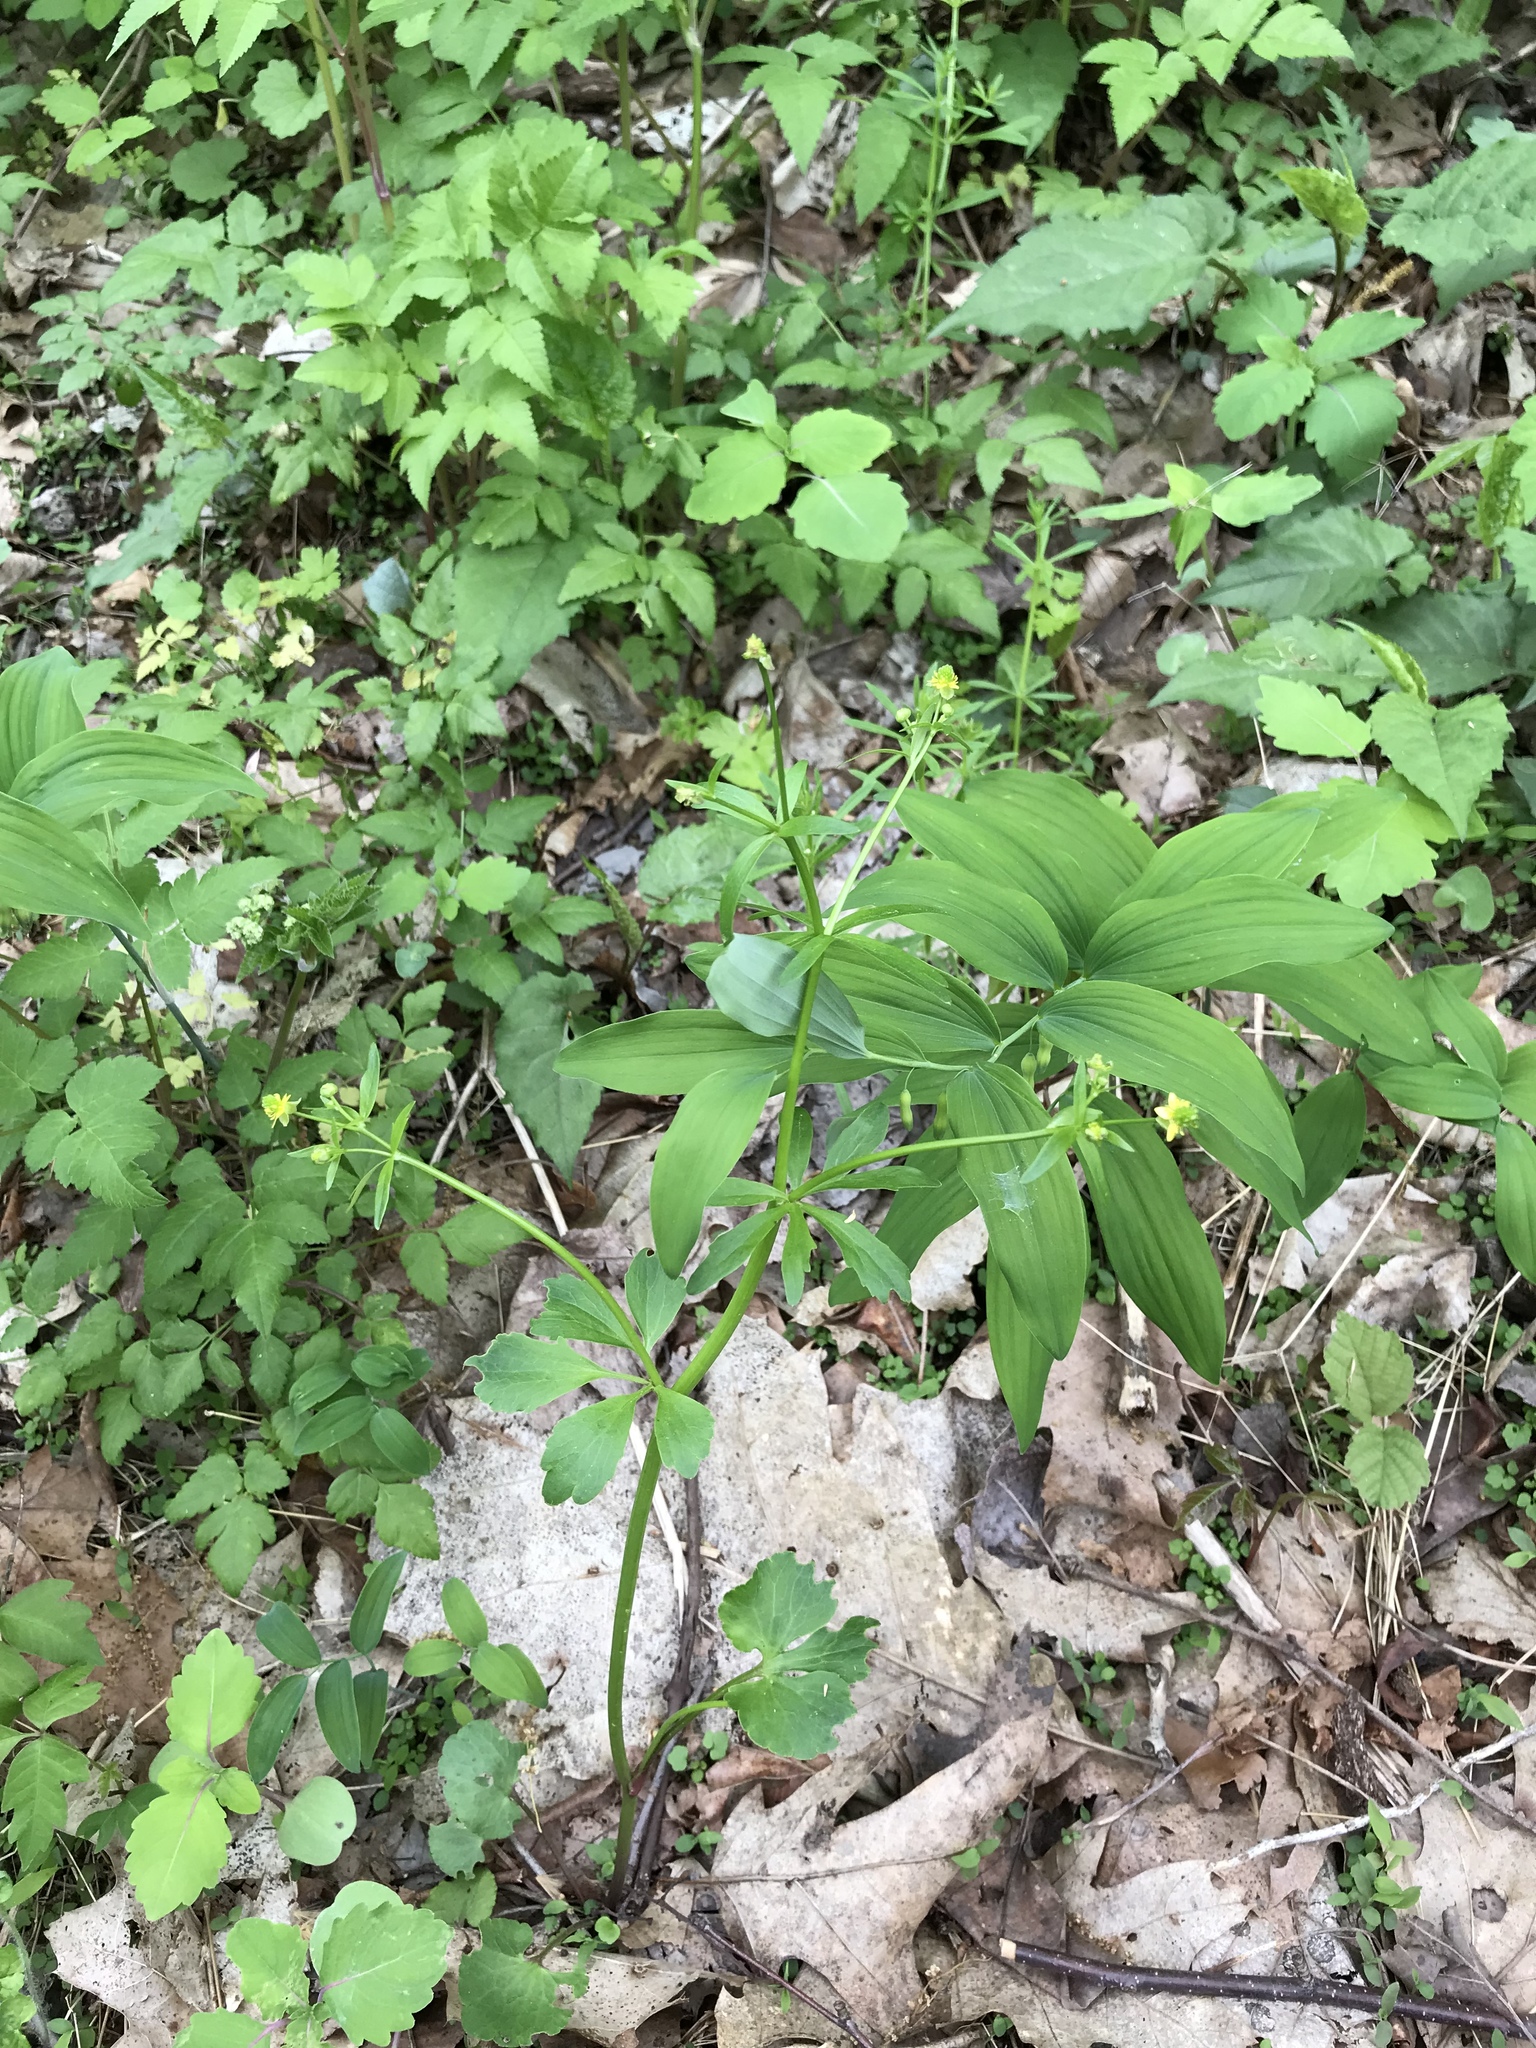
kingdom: Plantae
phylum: Tracheophyta
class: Magnoliopsida
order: Ranunculales
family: Ranunculaceae
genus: Ranunculus
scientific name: Ranunculus abortivus
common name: Early wood buttercup
